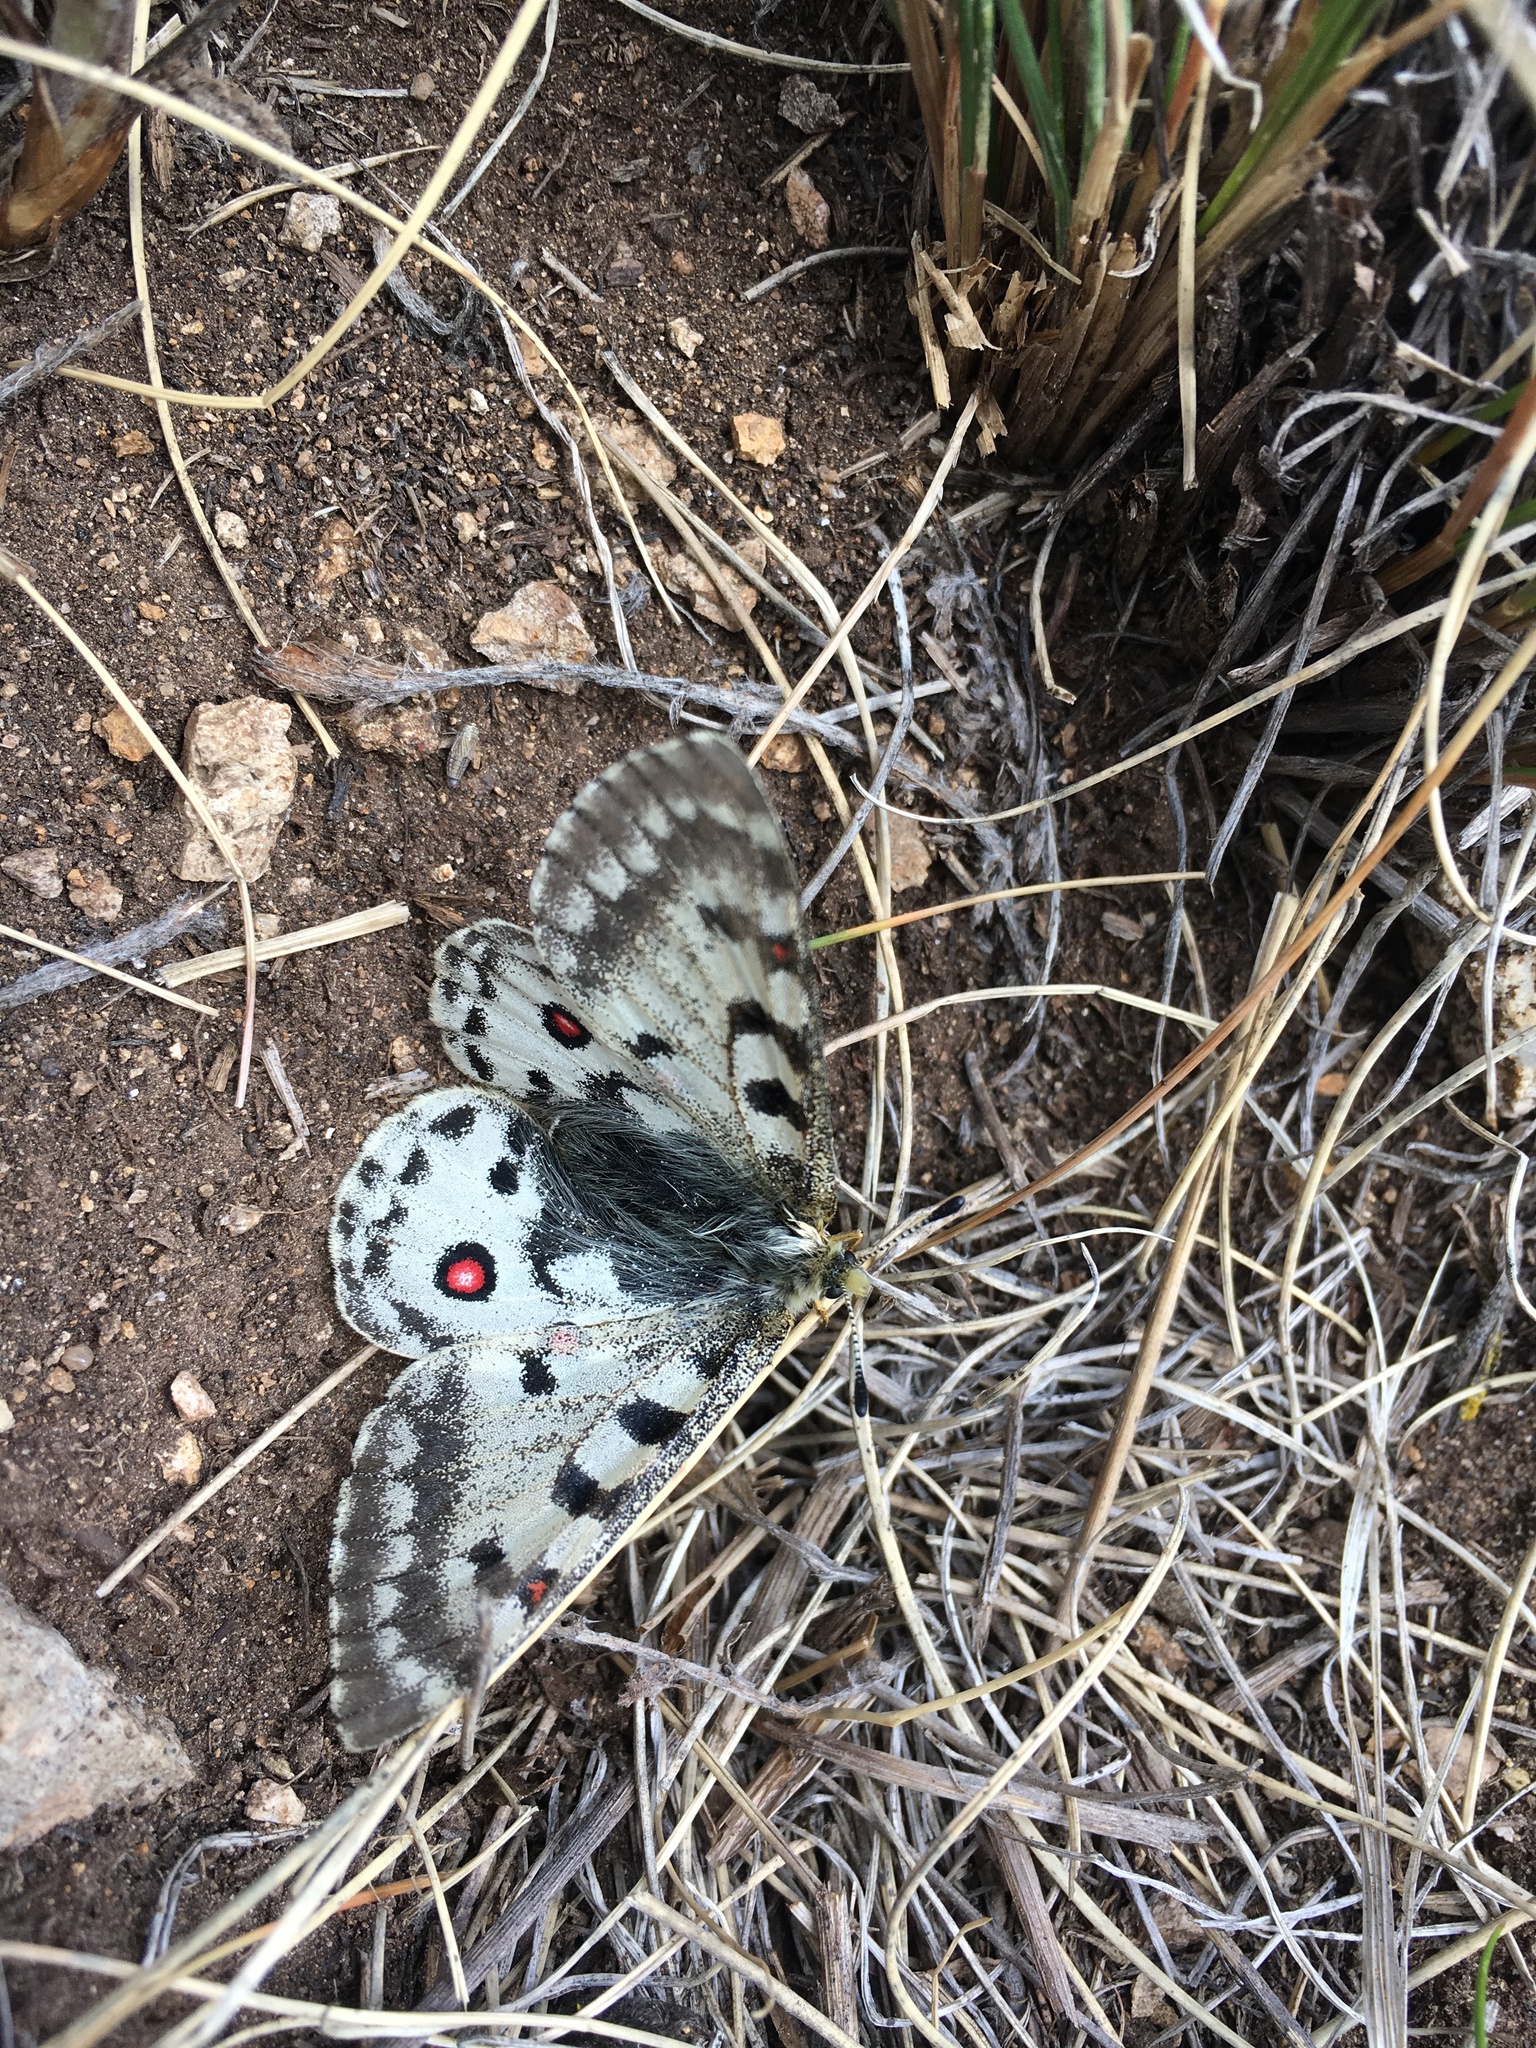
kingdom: Animalia
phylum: Arthropoda
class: Insecta
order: Lepidoptera
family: Papilionidae
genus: Parnassius
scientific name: Parnassius smintheus
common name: Mountain parnassian
